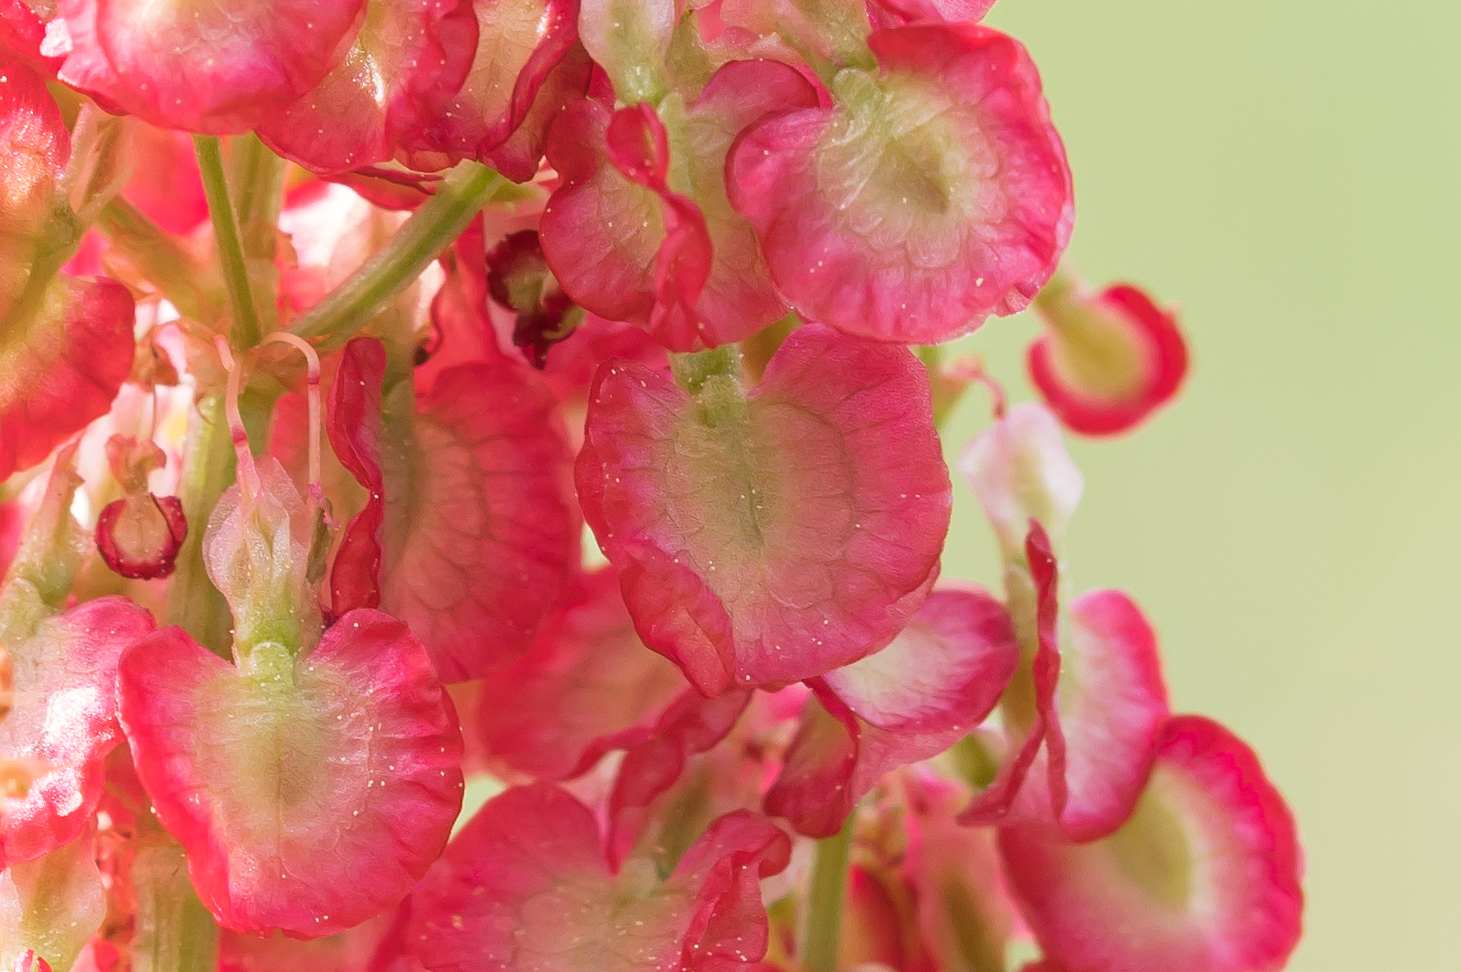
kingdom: Plantae
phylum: Tracheophyta
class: Magnoliopsida
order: Caryophyllales
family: Polygonaceae
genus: Rumex
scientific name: Rumex tuberosus
